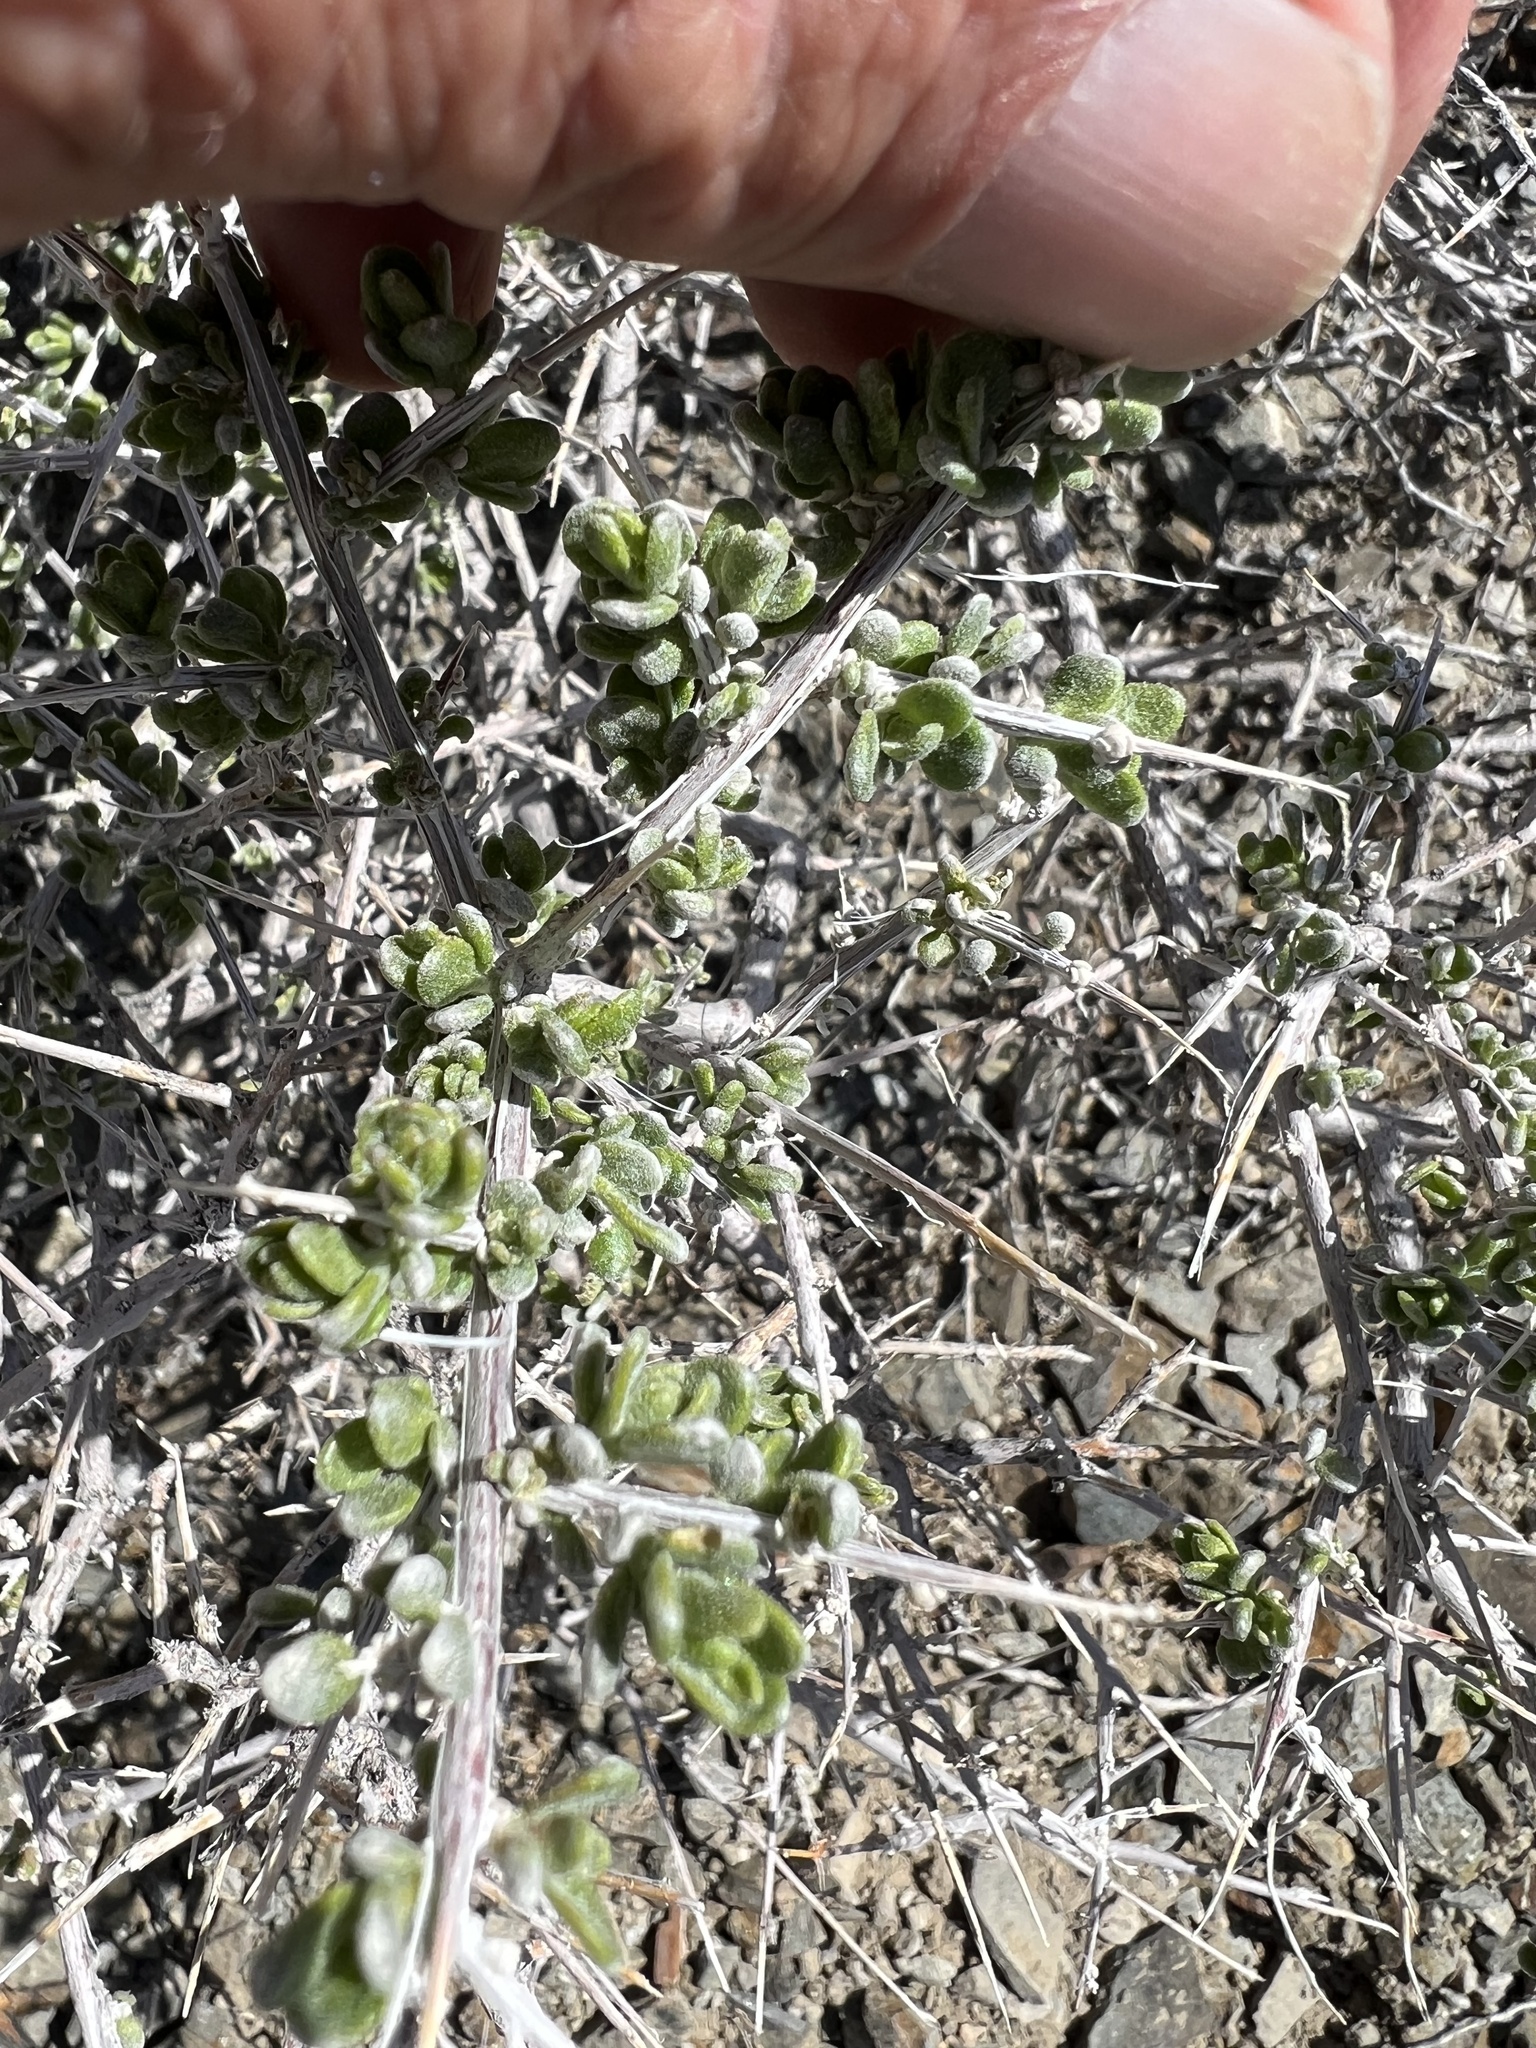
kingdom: Plantae
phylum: Tracheophyta
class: Magnoliopsida
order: Caryophyllales
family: Amaranthaceae
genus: Grayia
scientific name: Grayia spinosa
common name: Spiny hopsage
